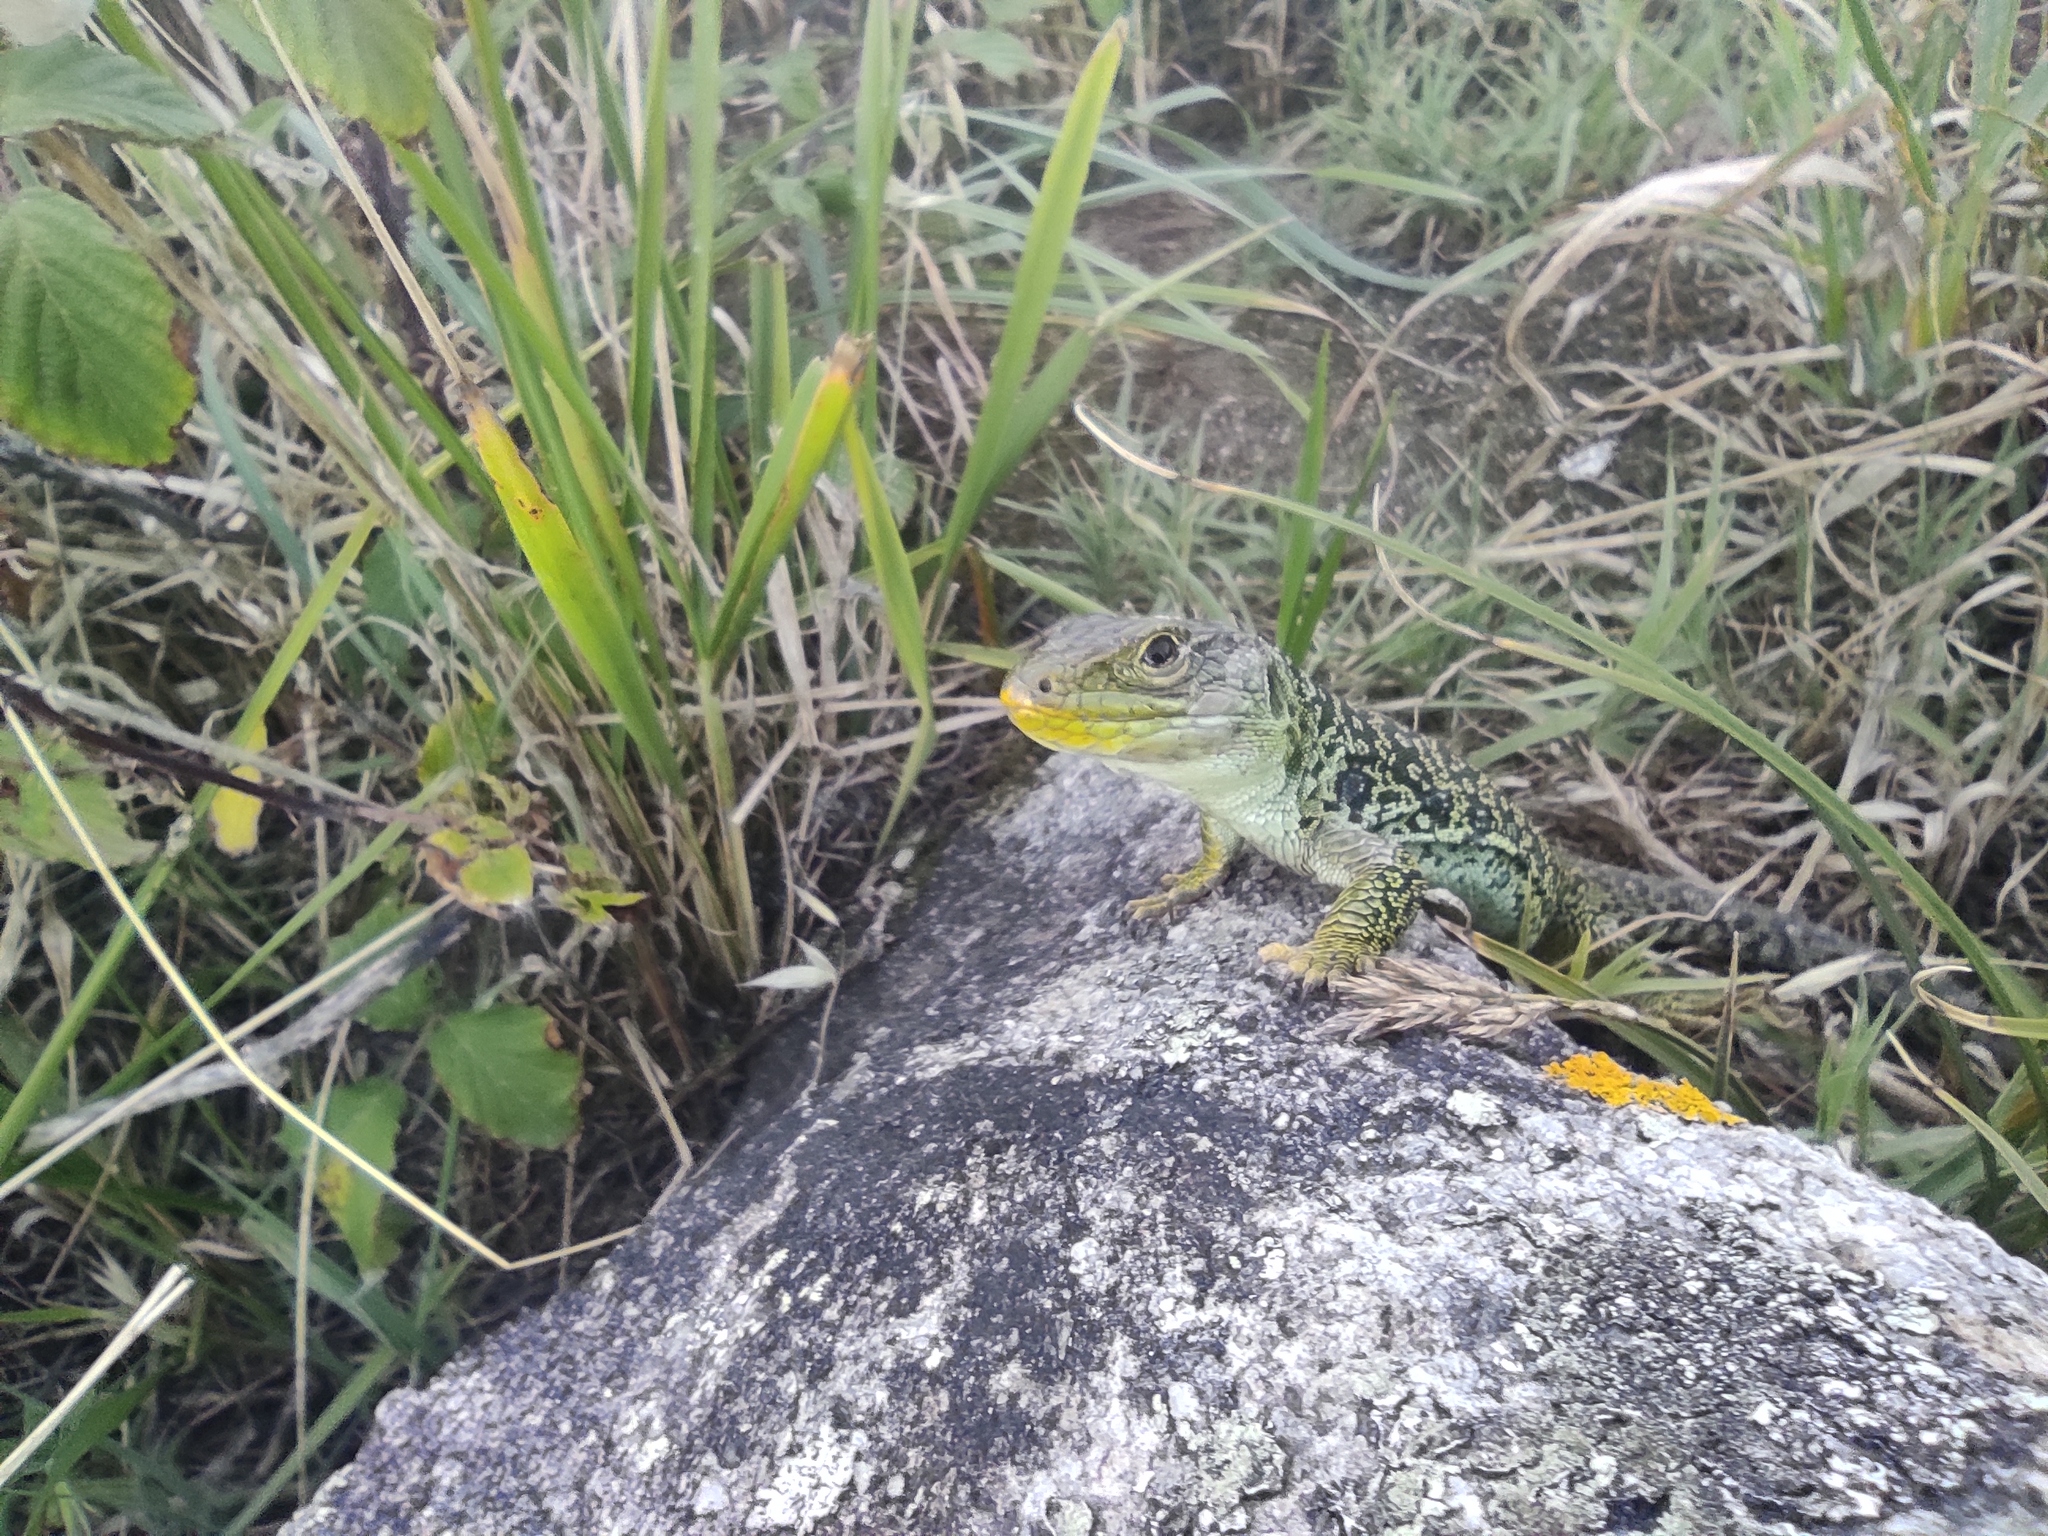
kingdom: Animalia
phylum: Chordata
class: Squamata
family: Lacertidae
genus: Timon
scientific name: Timon lepidus
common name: Ocellated lizard
